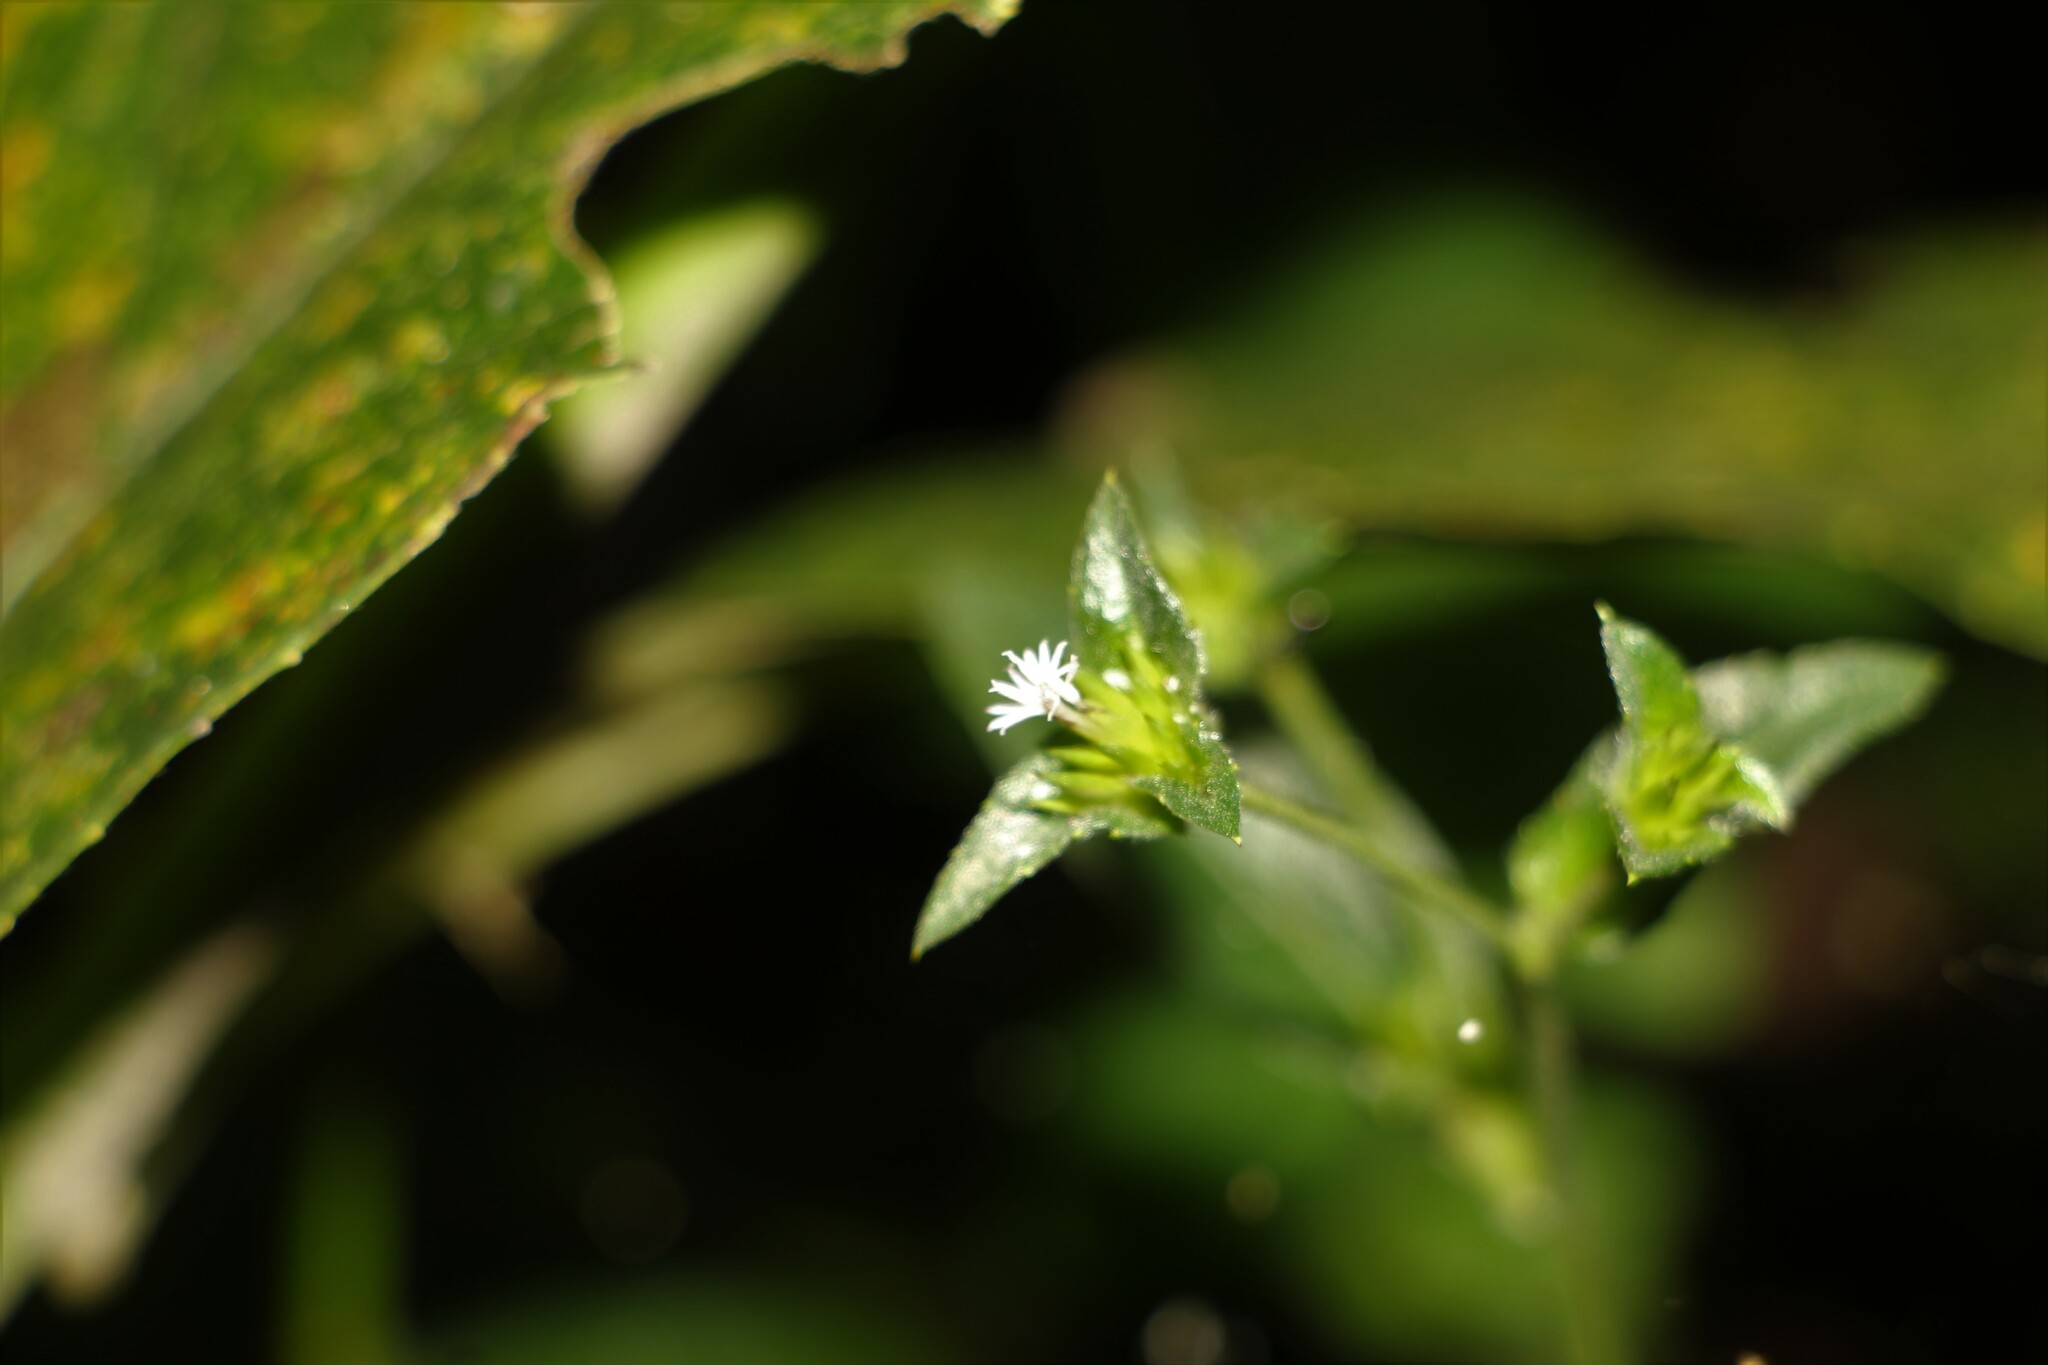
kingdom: Plantae
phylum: Tracheophyta
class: Magnoliopsida
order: Asterales
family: Asteraceae
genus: Elephantopus
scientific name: Elephantopus mollis
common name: Soft elephantsfoot
